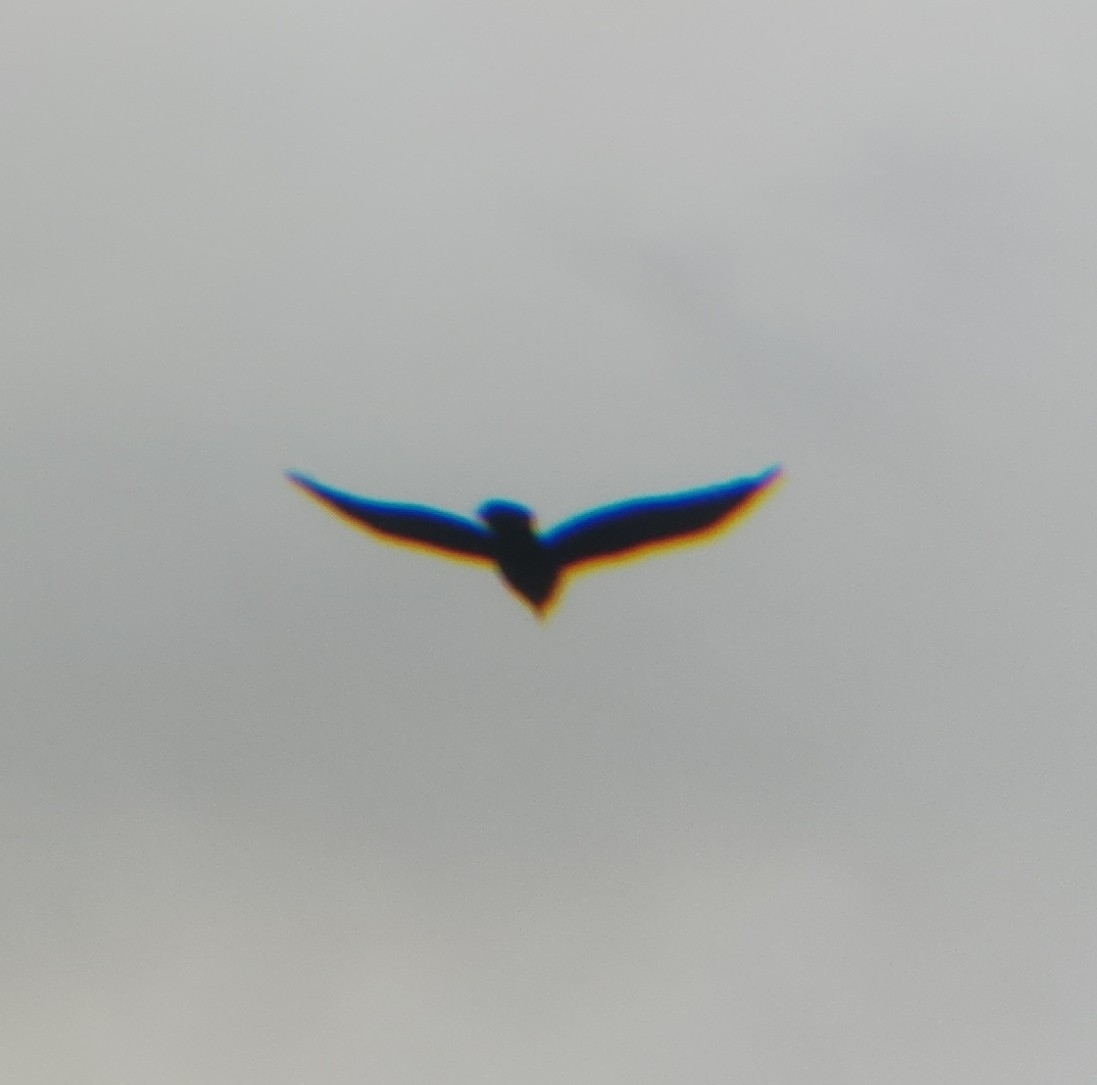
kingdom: Animalia
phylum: Chordata
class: Aves
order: Passeriformes
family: Corvidae
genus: Corvus
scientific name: Corvus corax
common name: Common raven
